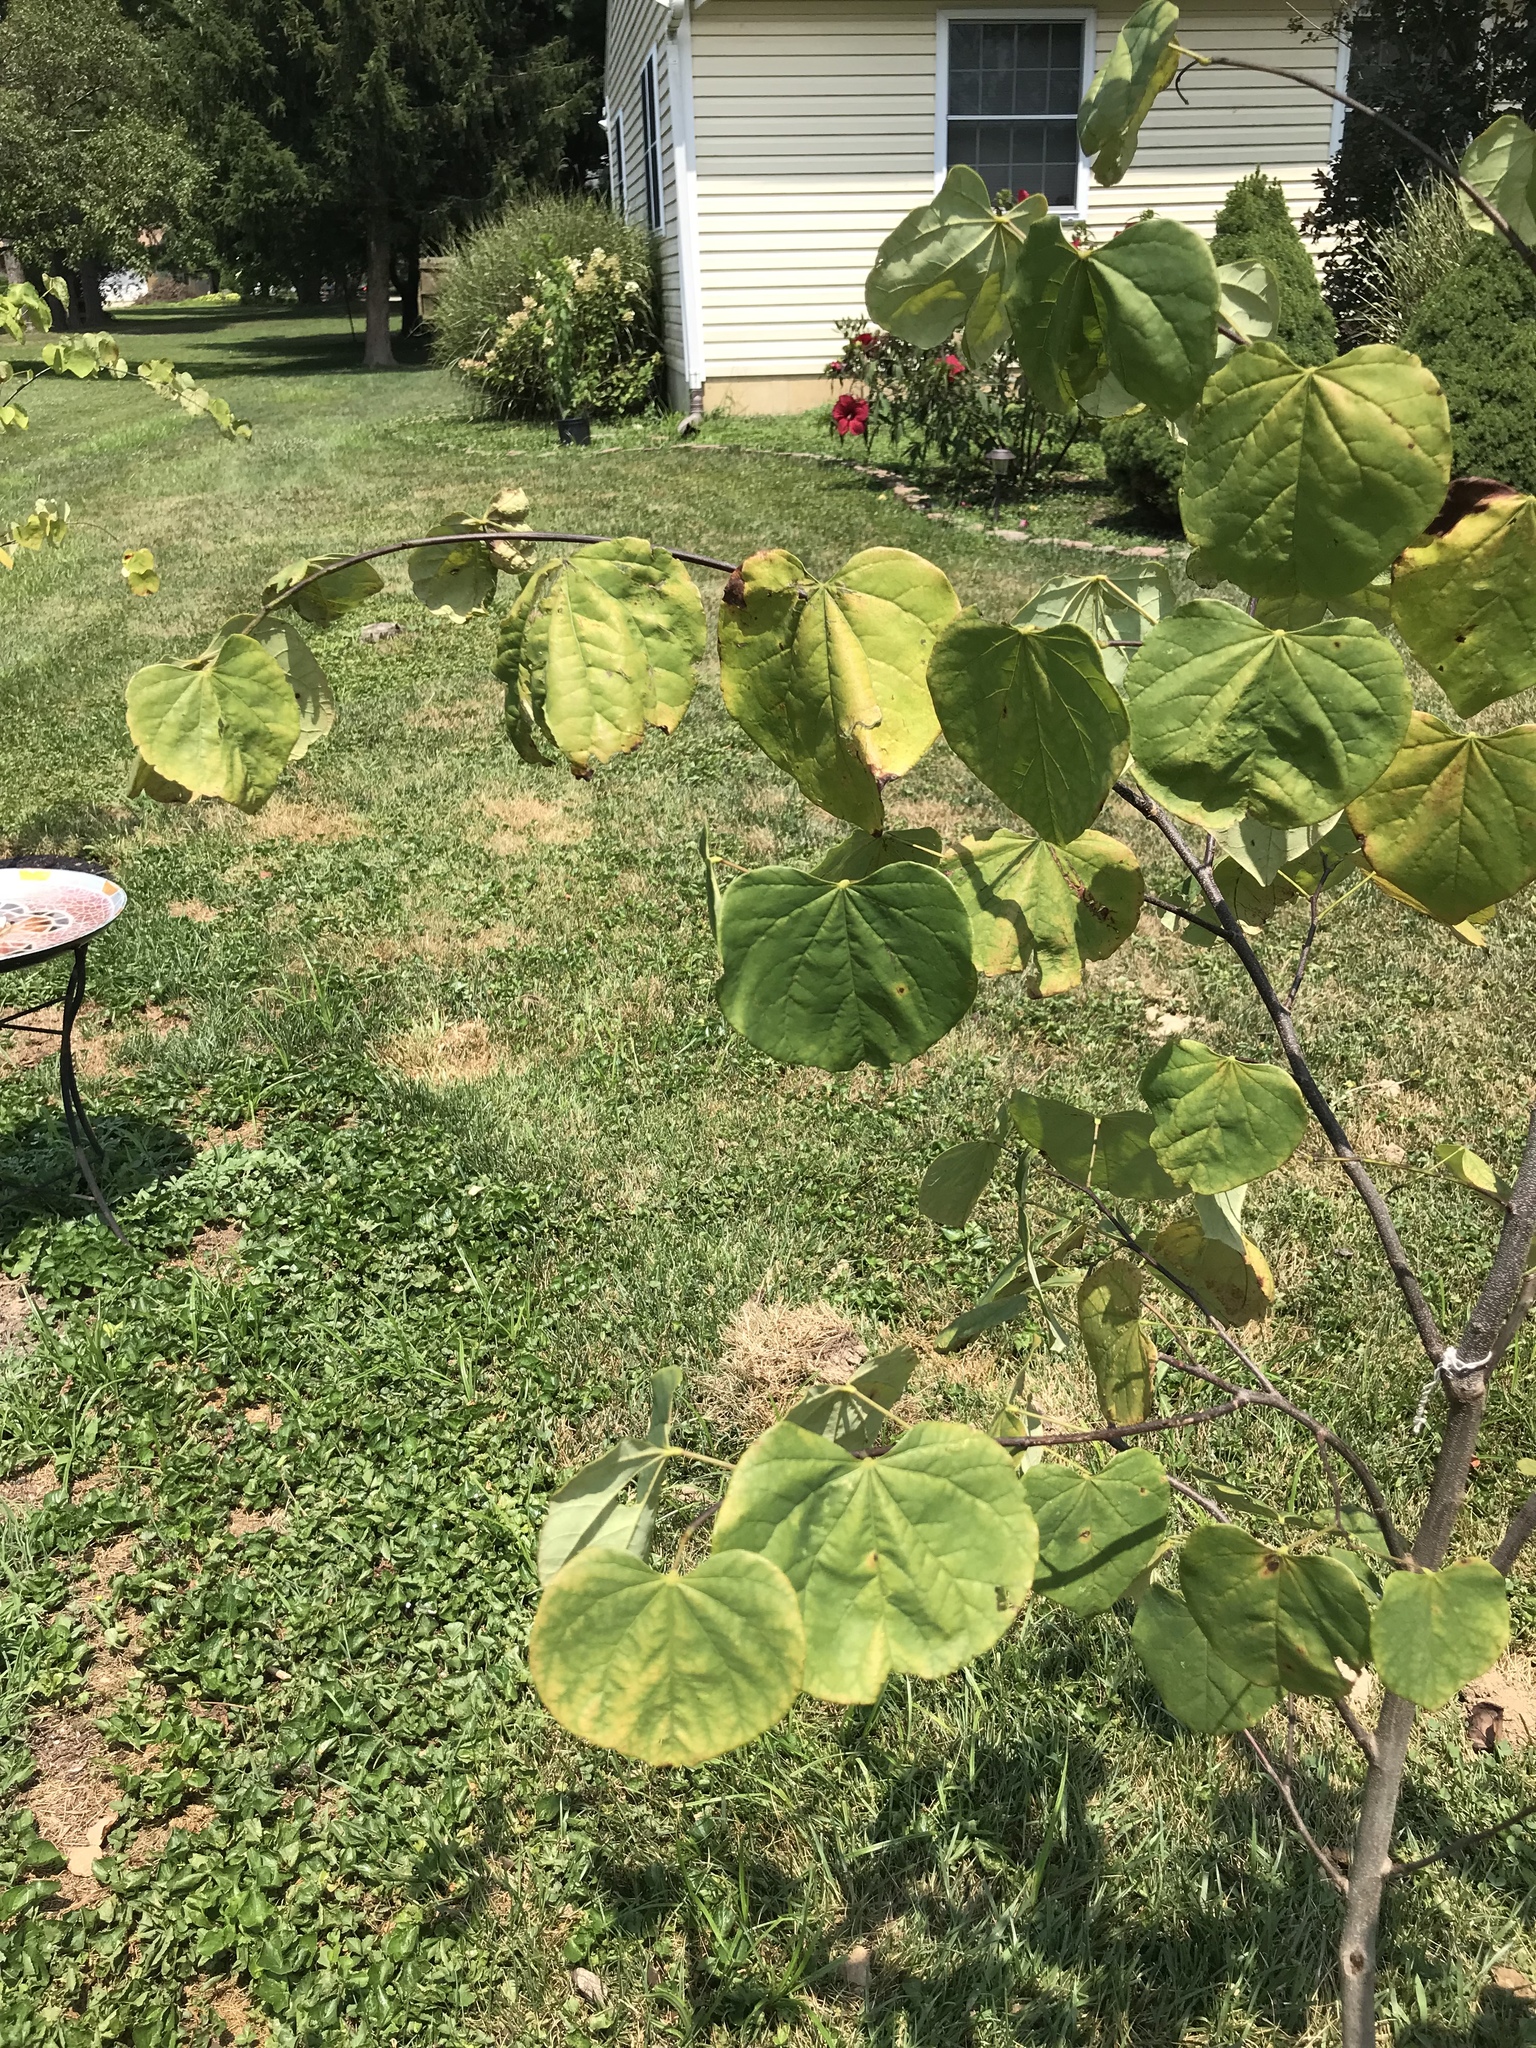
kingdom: Plantae
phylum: Tracheophyta
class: Magnoliopsida
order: Fabales
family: Fabaceae
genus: Cercis
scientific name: Cercis canadensis
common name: Eastern redbud
